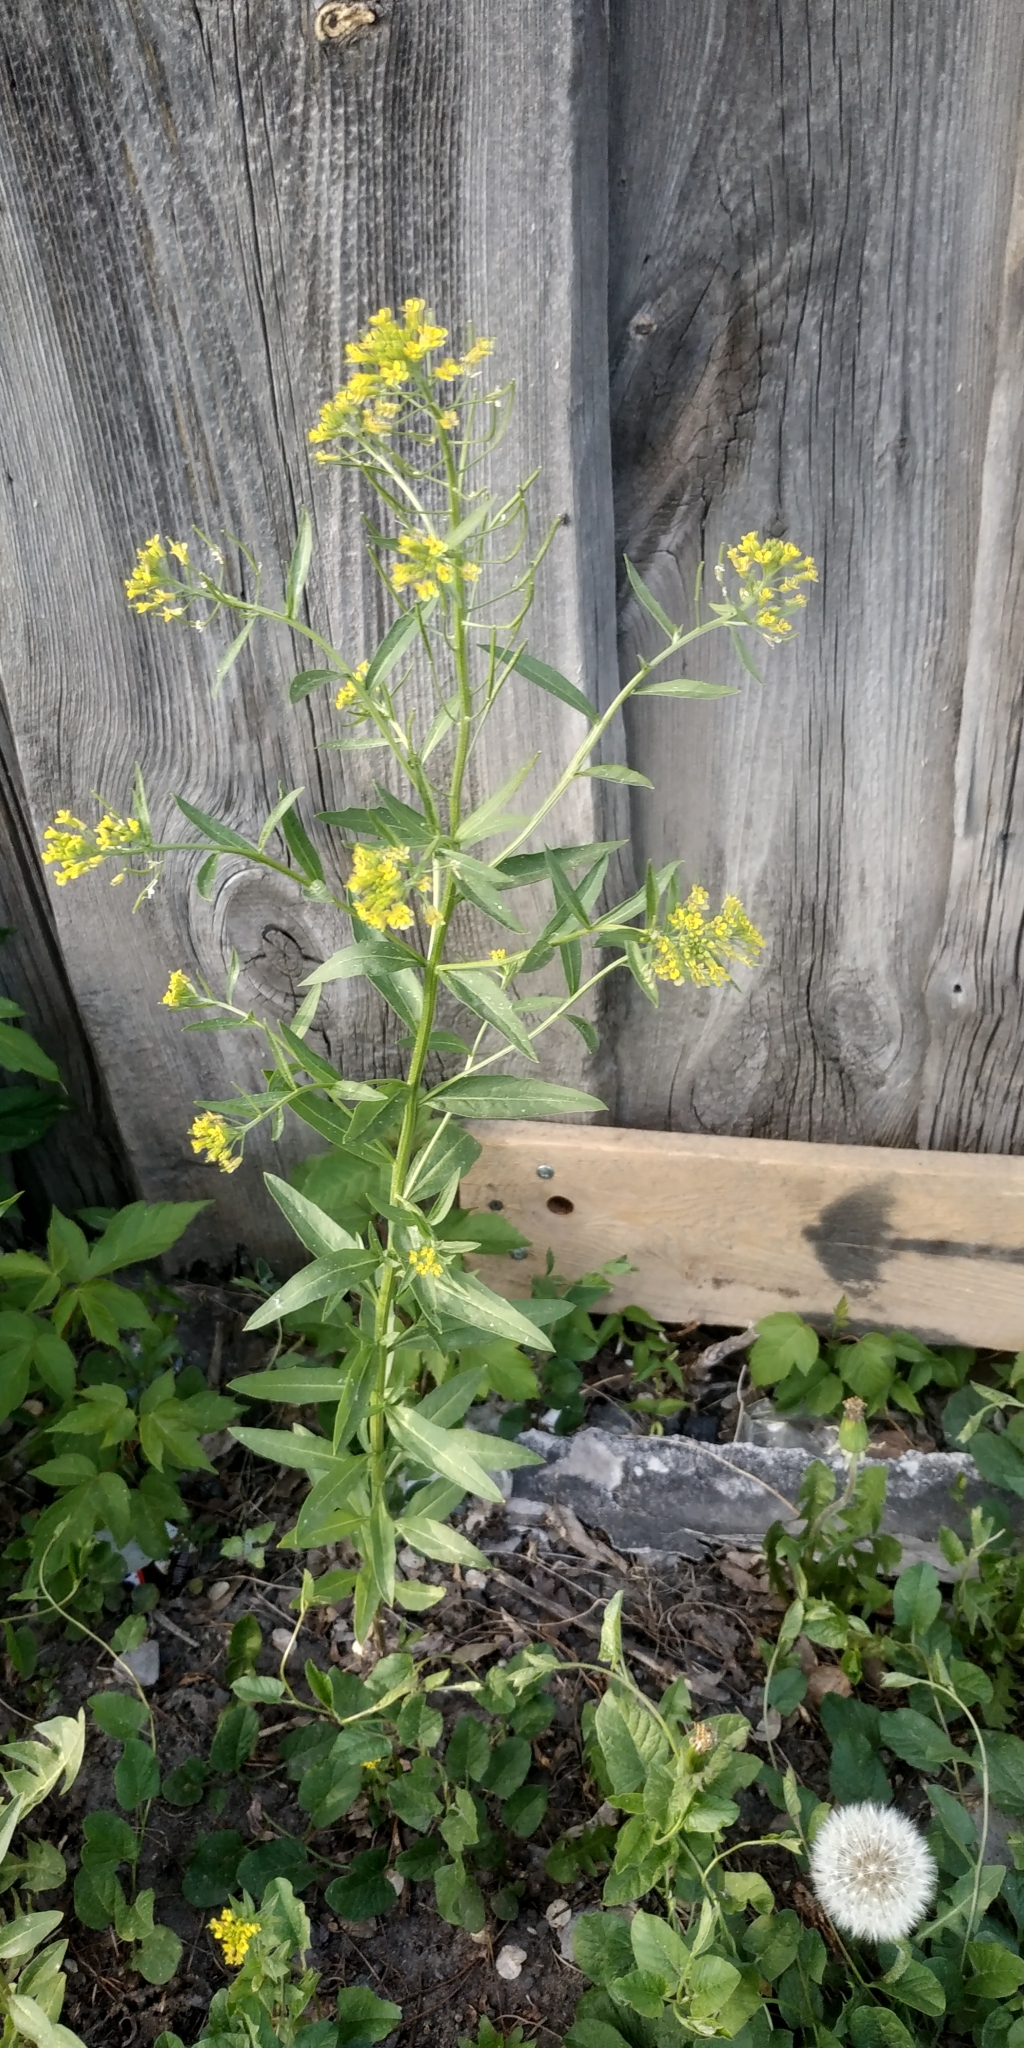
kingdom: Plantae
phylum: Tracheophyta
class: Magnoliopsida
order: Brassicales
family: Brassicaceae
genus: Erysimum
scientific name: Erysimum cheiranthoides
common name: Treacle mustard
